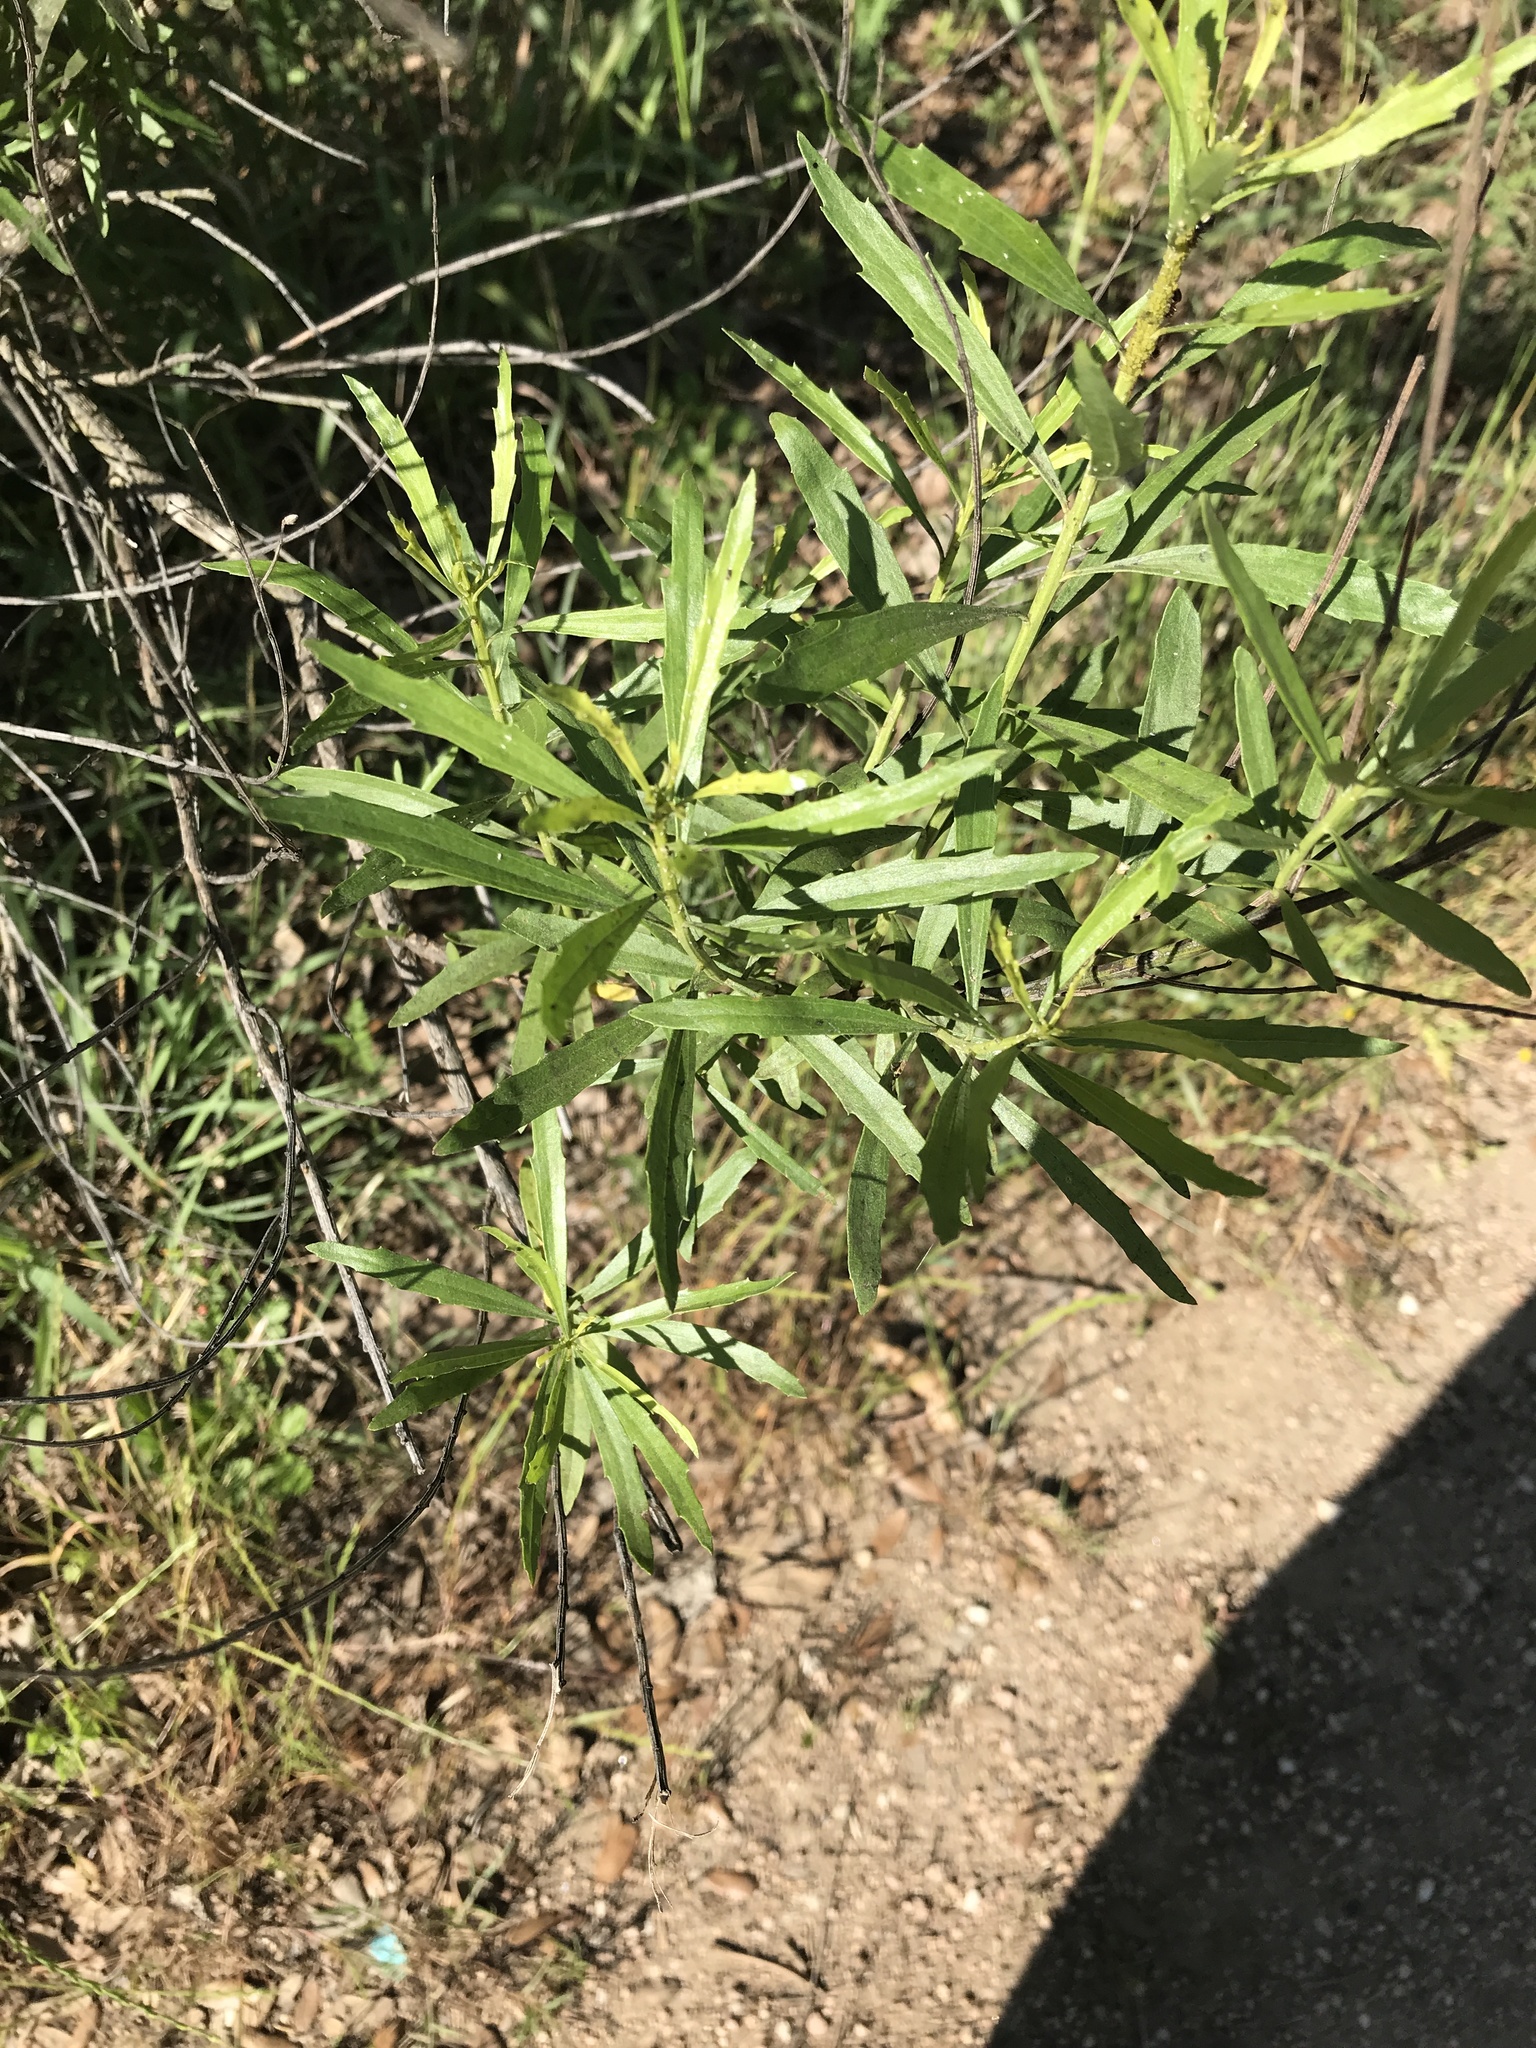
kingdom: Plantae
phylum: Tracheophyta
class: Magnoliopsida
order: Asterales
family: Asteraceae
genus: Baccharis
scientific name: Baccharis neglecta
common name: Roosevelt-weed
